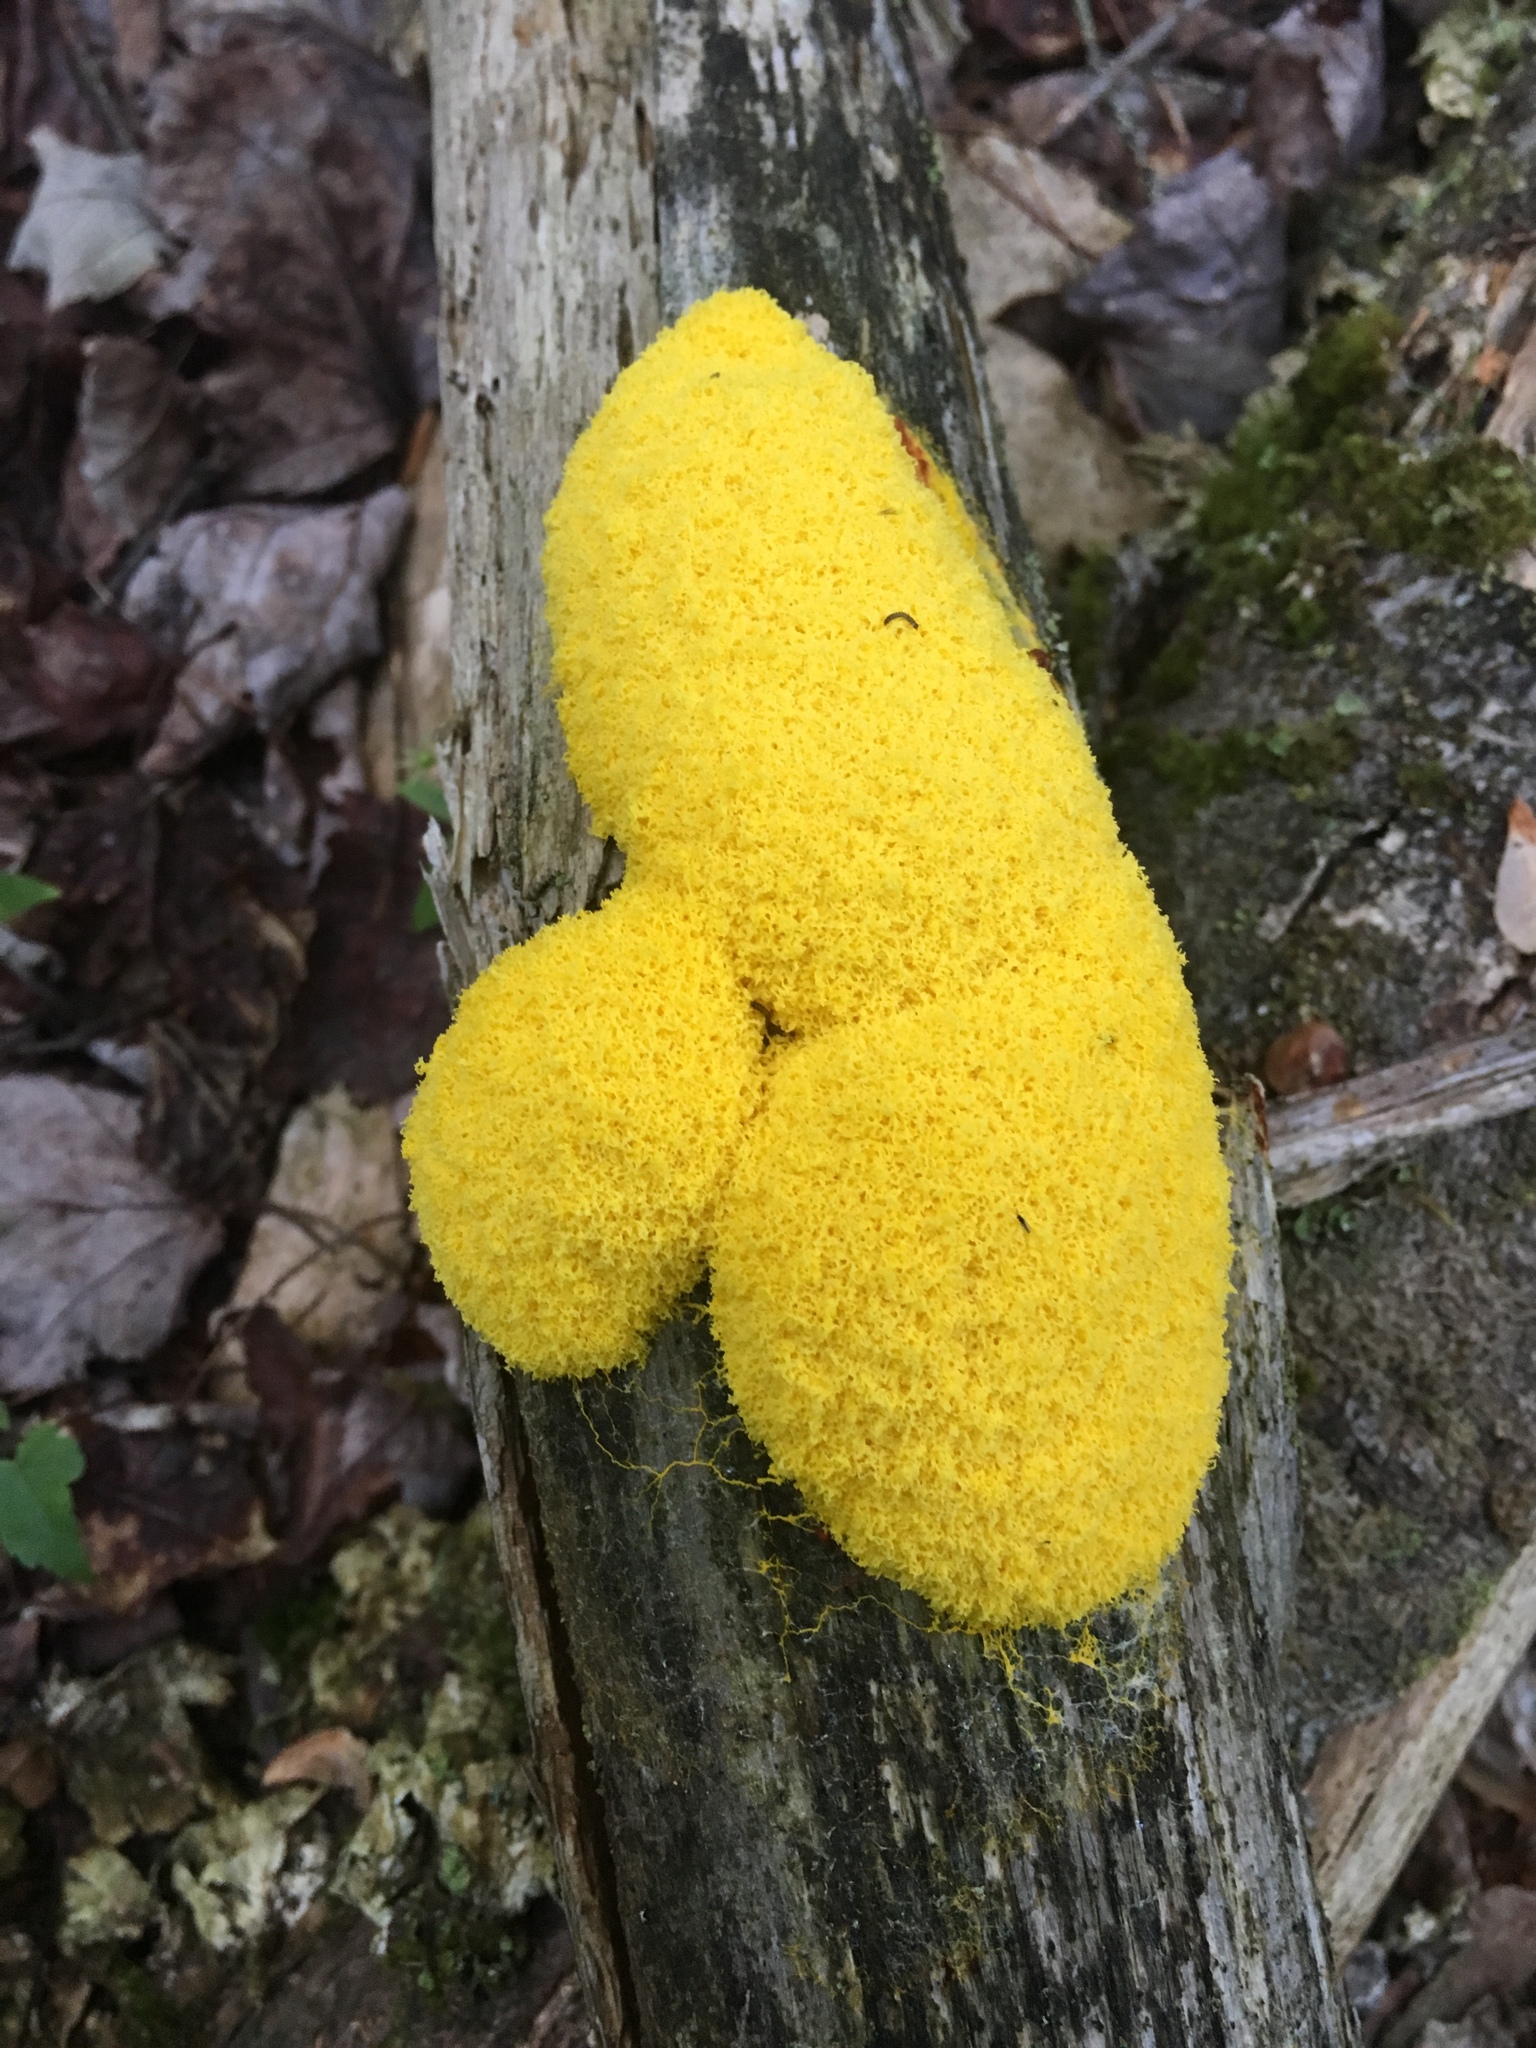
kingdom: Protozoa
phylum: Mycetozoa
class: Myxomycetes
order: Physarales
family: Physaraceae
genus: Fuligo
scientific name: Fuligo septica
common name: Dog vomit slime mold
